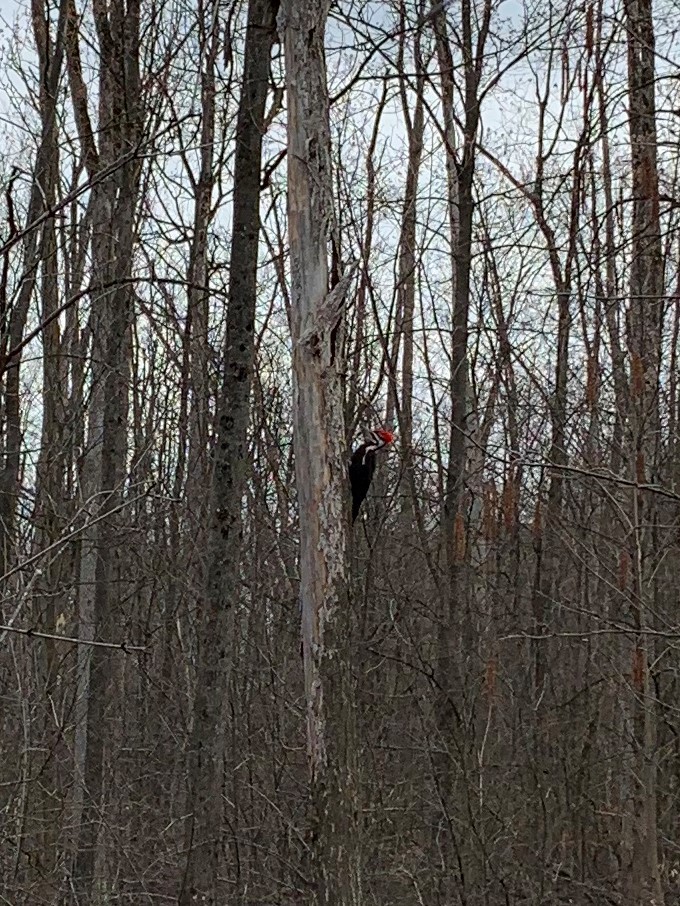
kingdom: Animalia
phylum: Chordata
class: Aves
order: Piciformes
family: Picidae
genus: Dryocopus
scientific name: Dryocopus pileatus
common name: Pileated woodpecker
